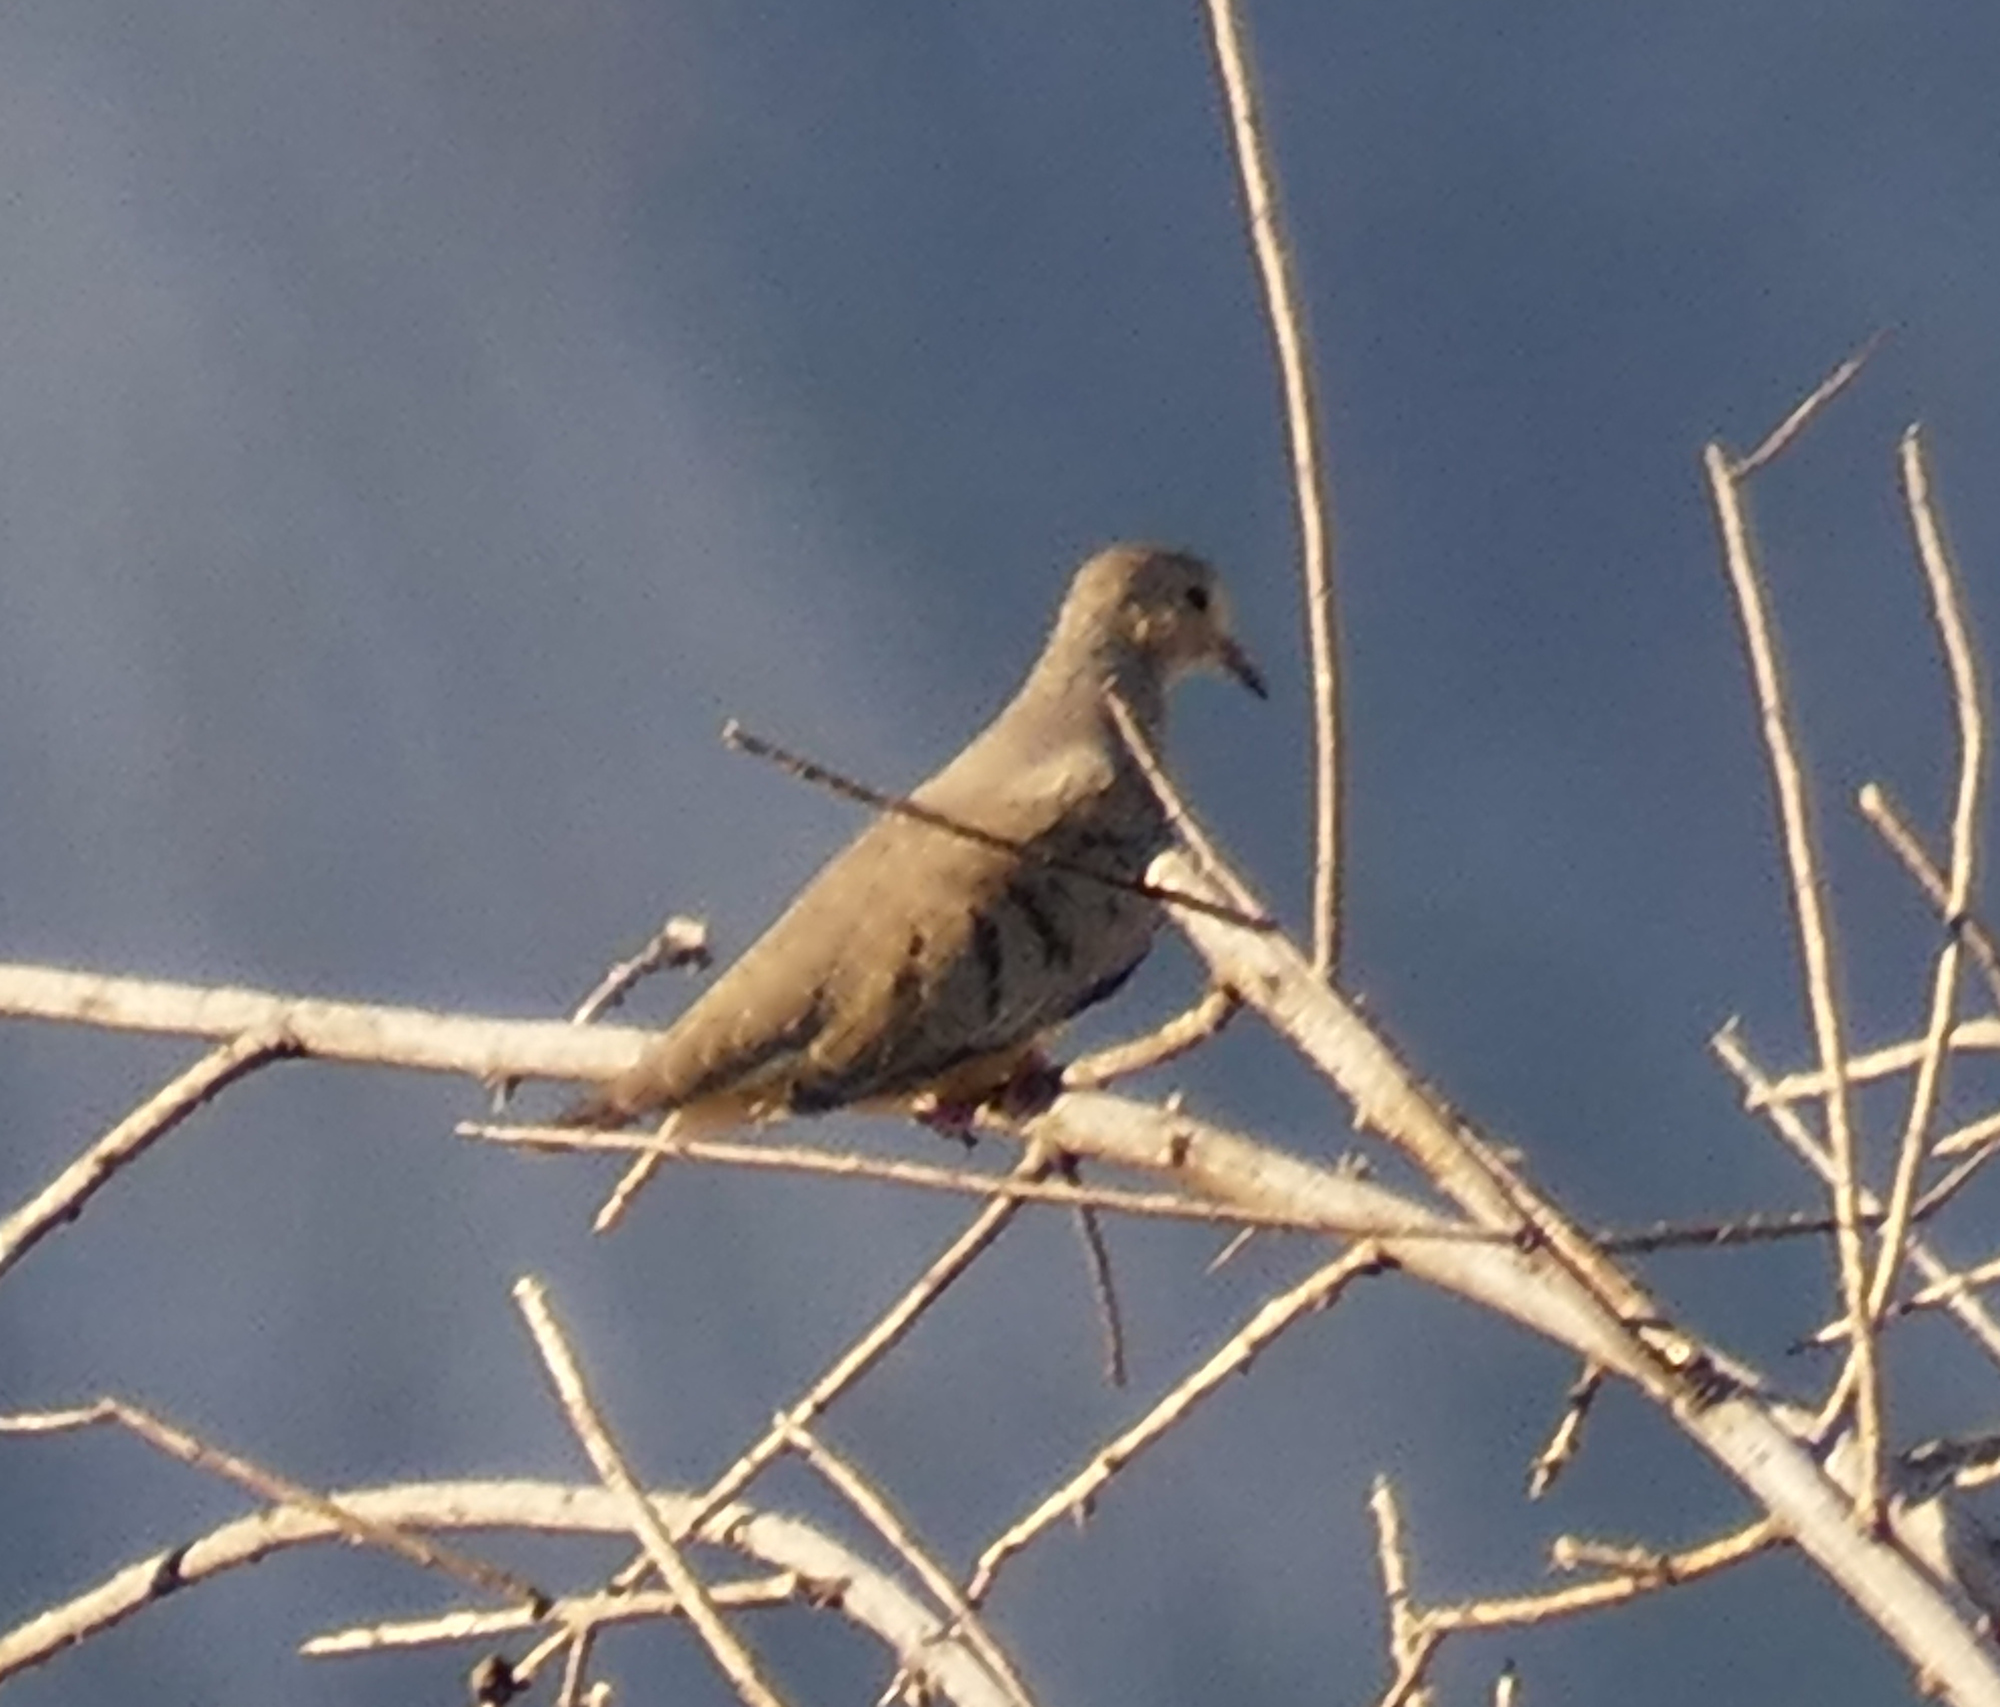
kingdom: Animalia
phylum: Chordata
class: Aves
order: Columbiformes
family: Columbidae
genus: Columbina
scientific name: Columbina passerina
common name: Common ground-dove
